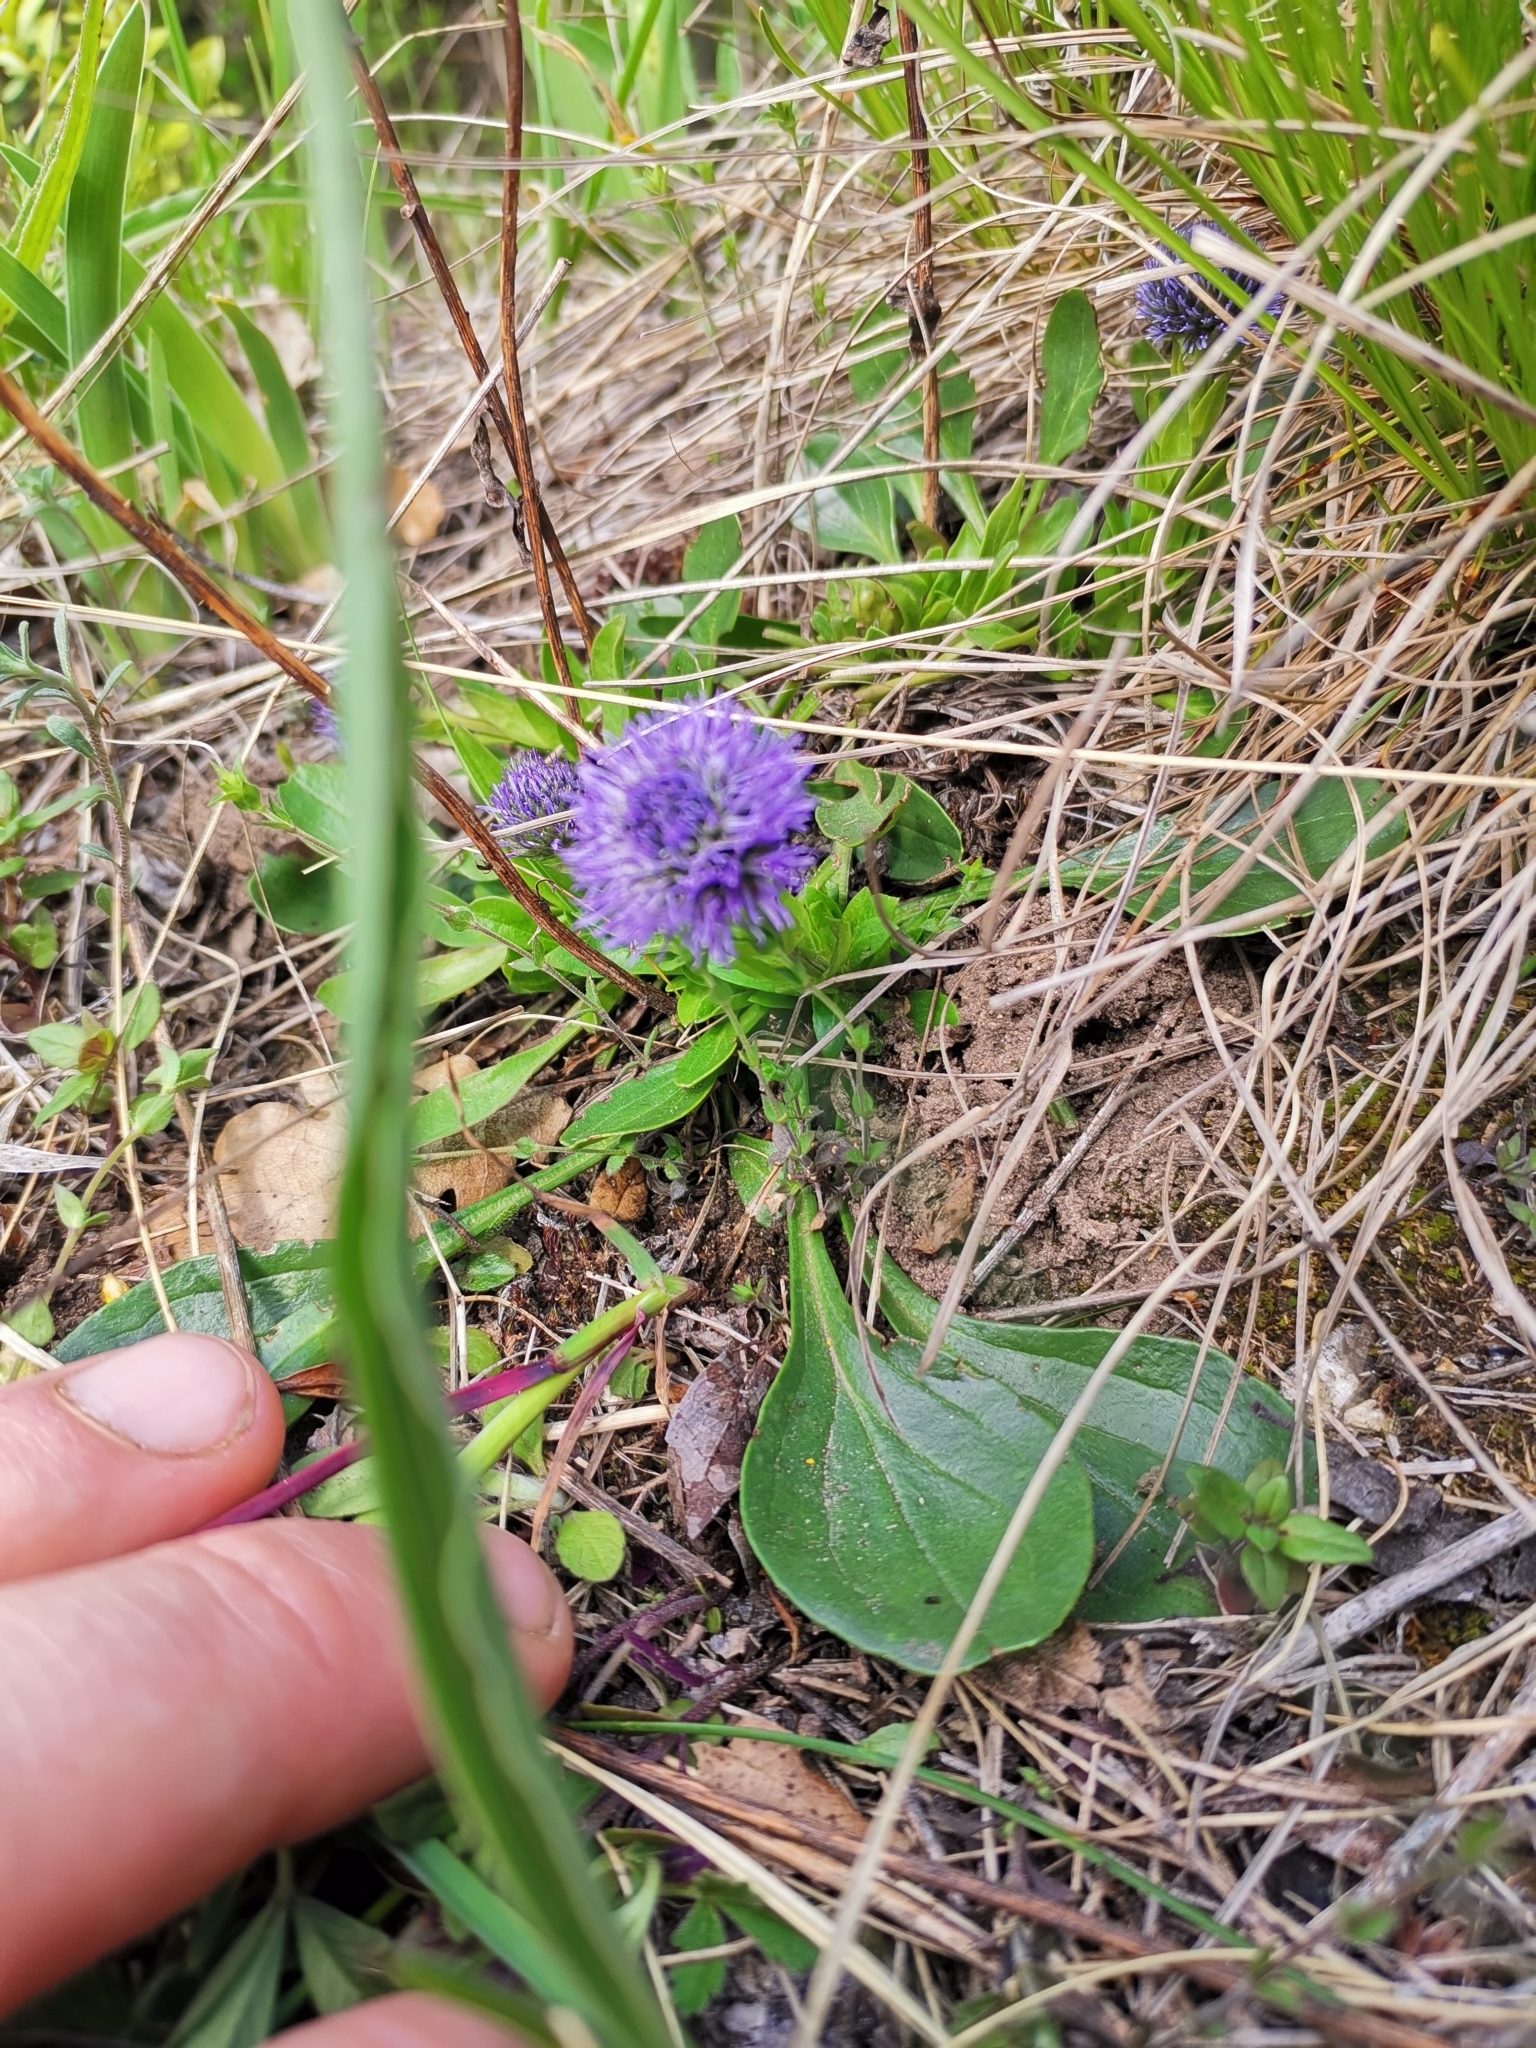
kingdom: Plantae
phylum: Tracheophyta
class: Magnoliopsida
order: Lamiales
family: Plantaginaceae
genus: Globularia
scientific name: Globularia bisnagarica
